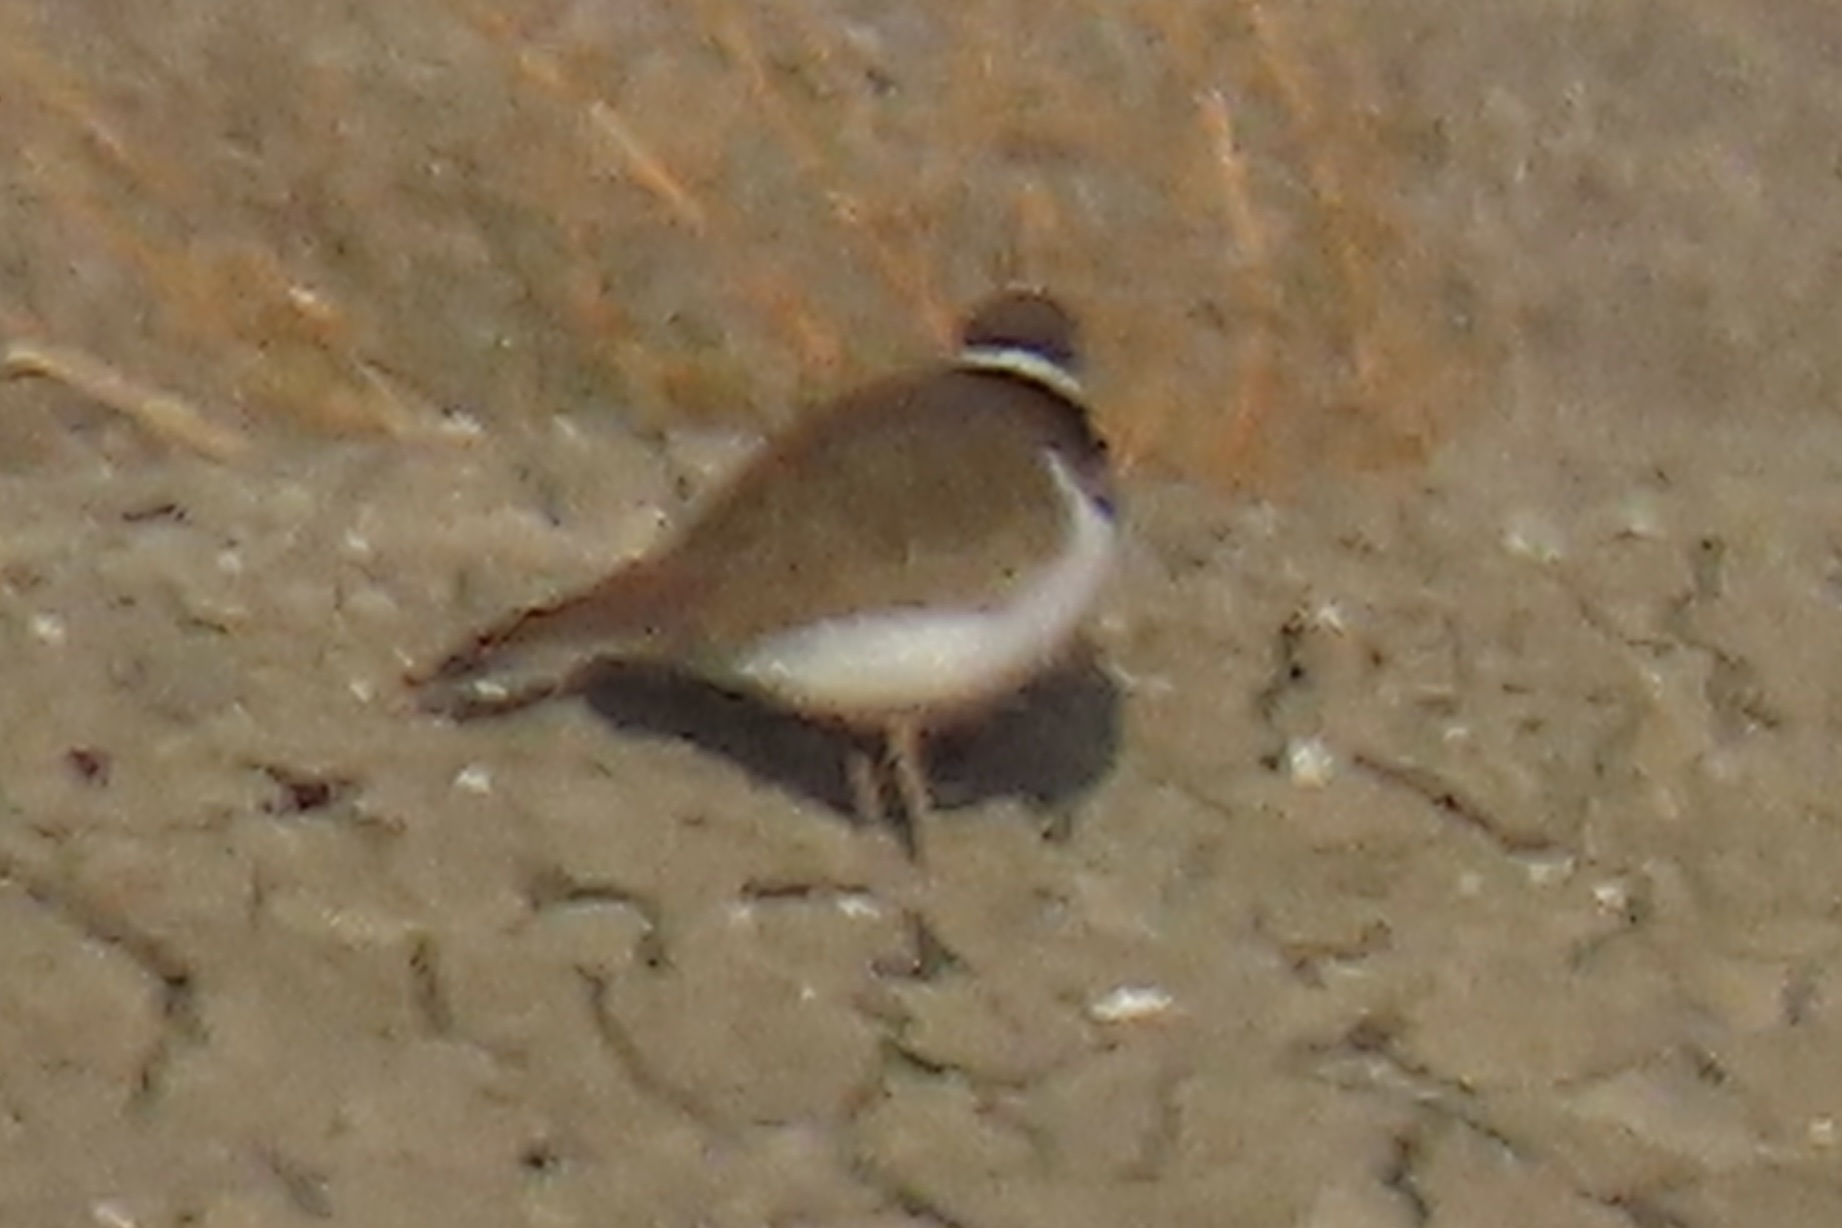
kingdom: Animalia
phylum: Chordata
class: Aves
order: Charadriiformes
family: Charadriidae
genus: Charadrius
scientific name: Charadrius vociferus
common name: Killdeer
